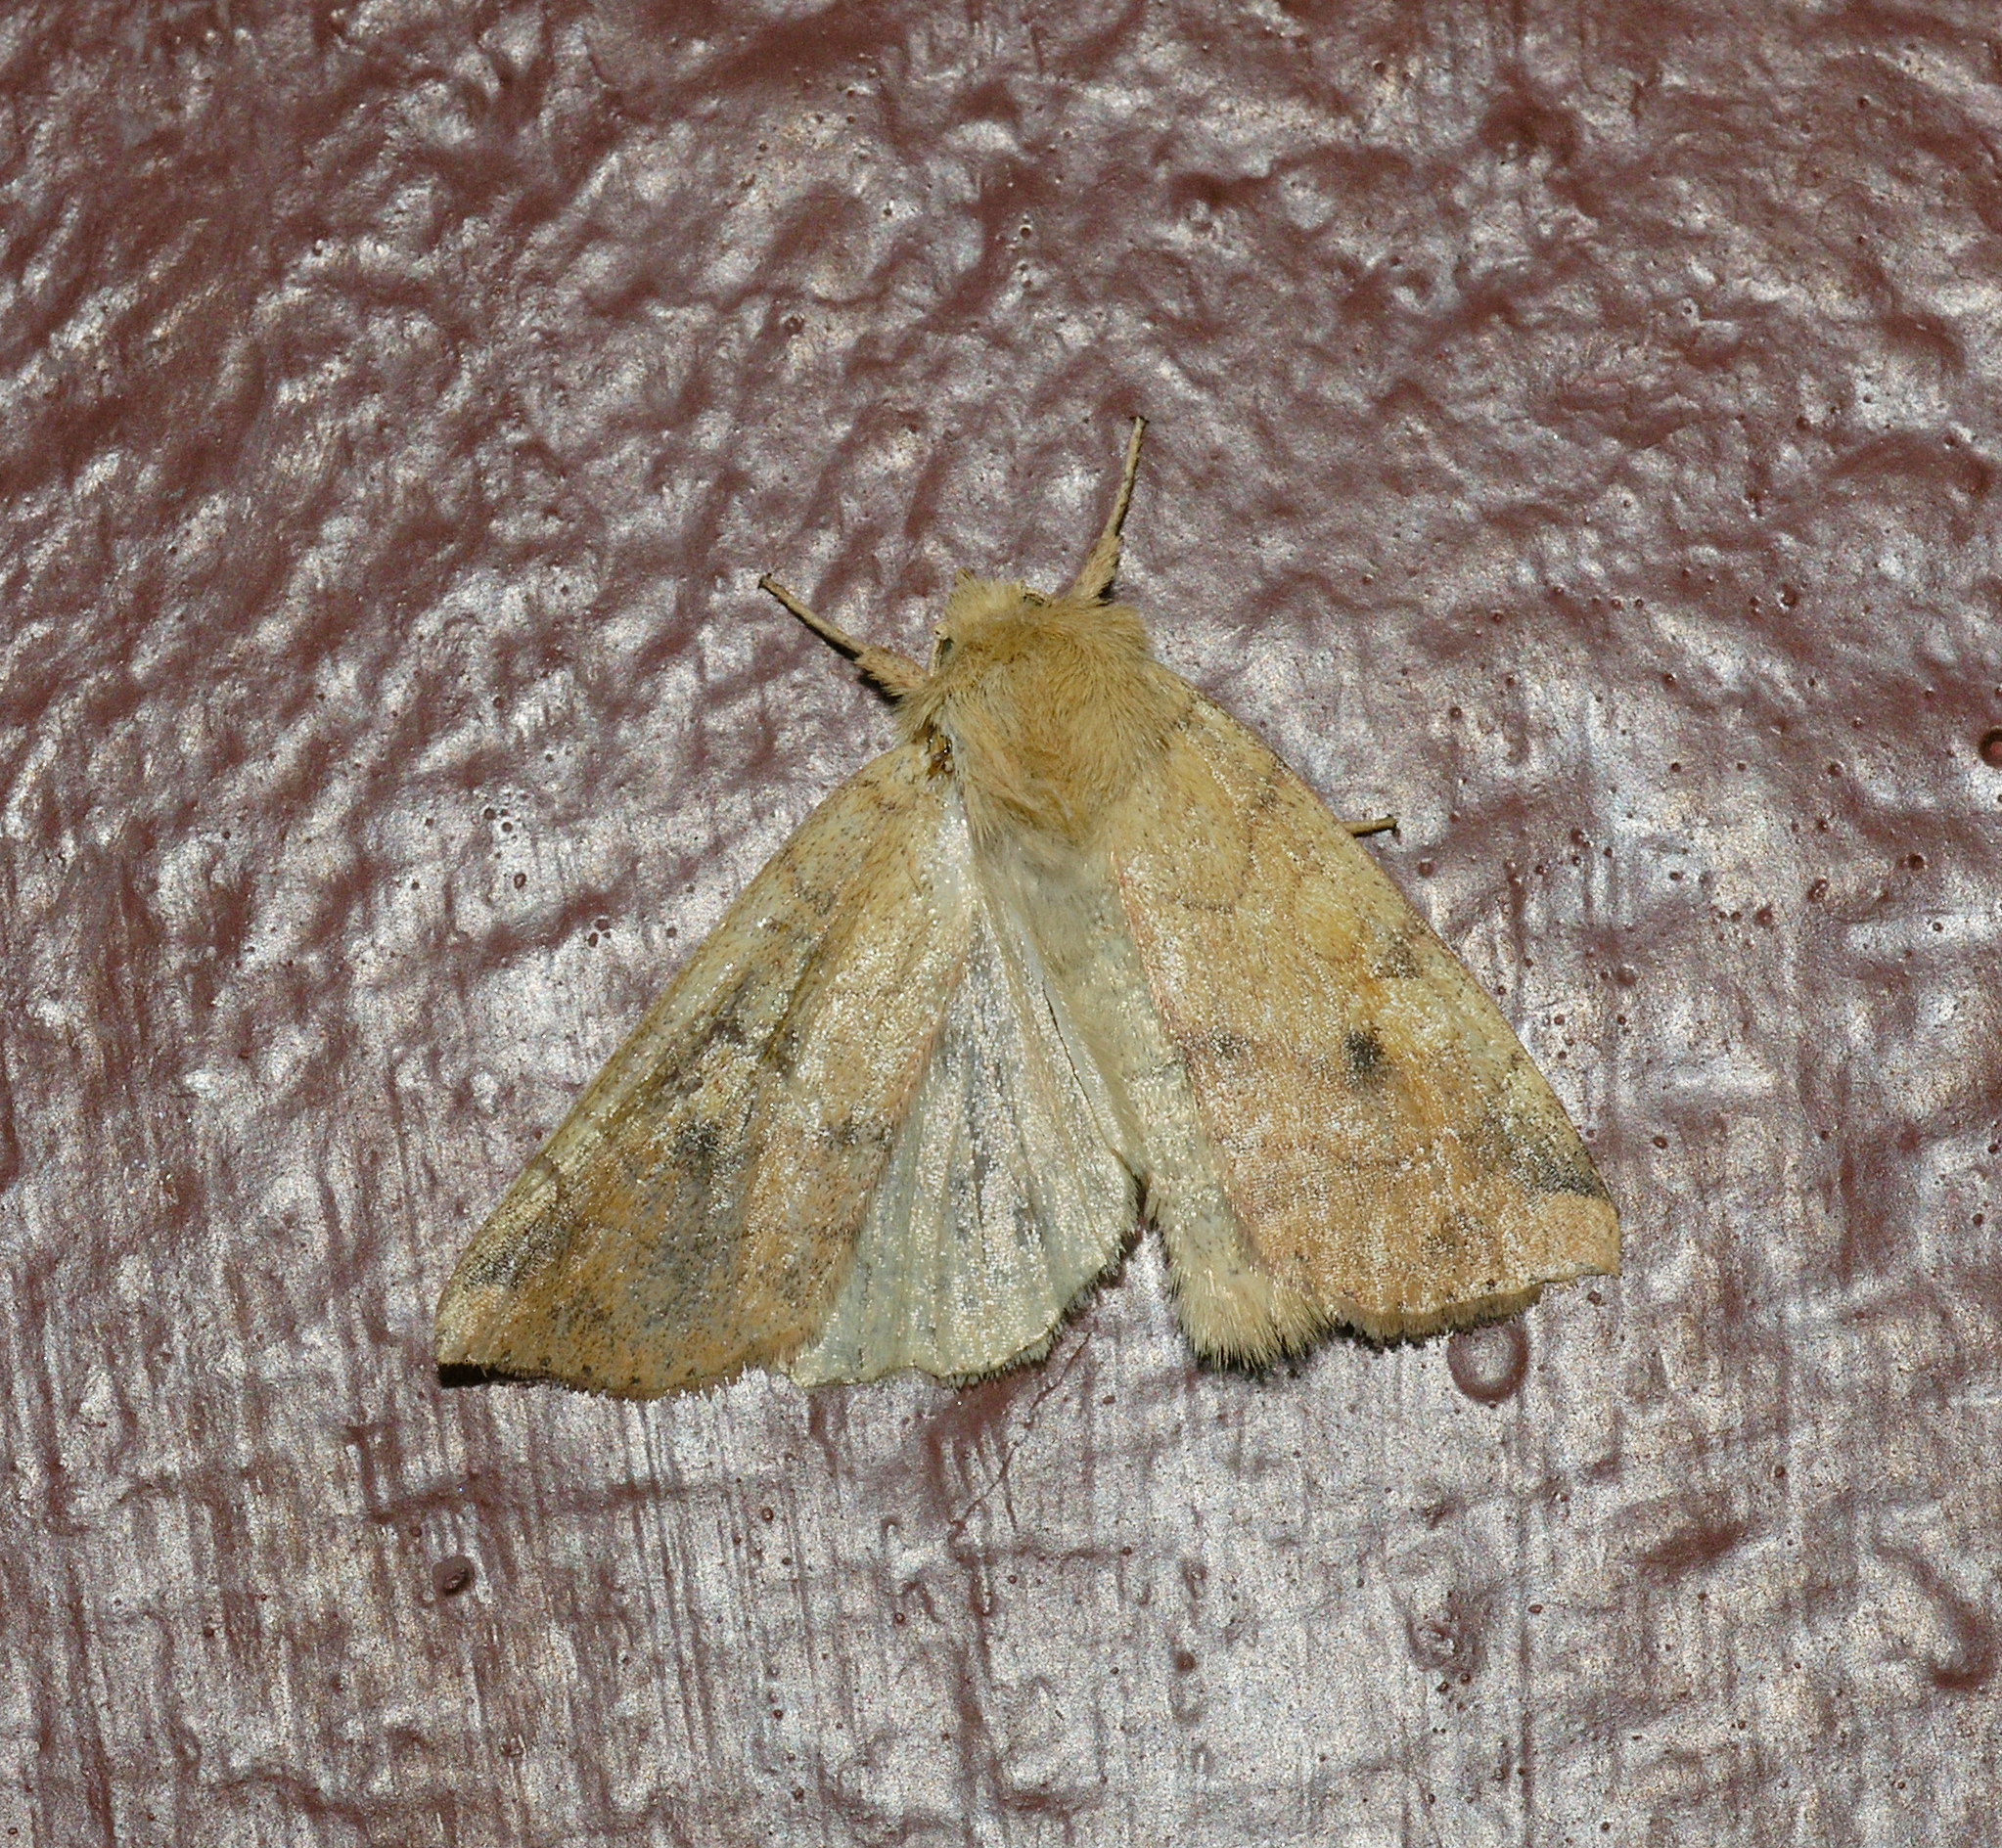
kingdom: Animalia
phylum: Arthropoda
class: Insecta
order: Lepidoptera
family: Noctuidae
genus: Enargia
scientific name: Enargia paleacea
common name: Angle-striped sallow
